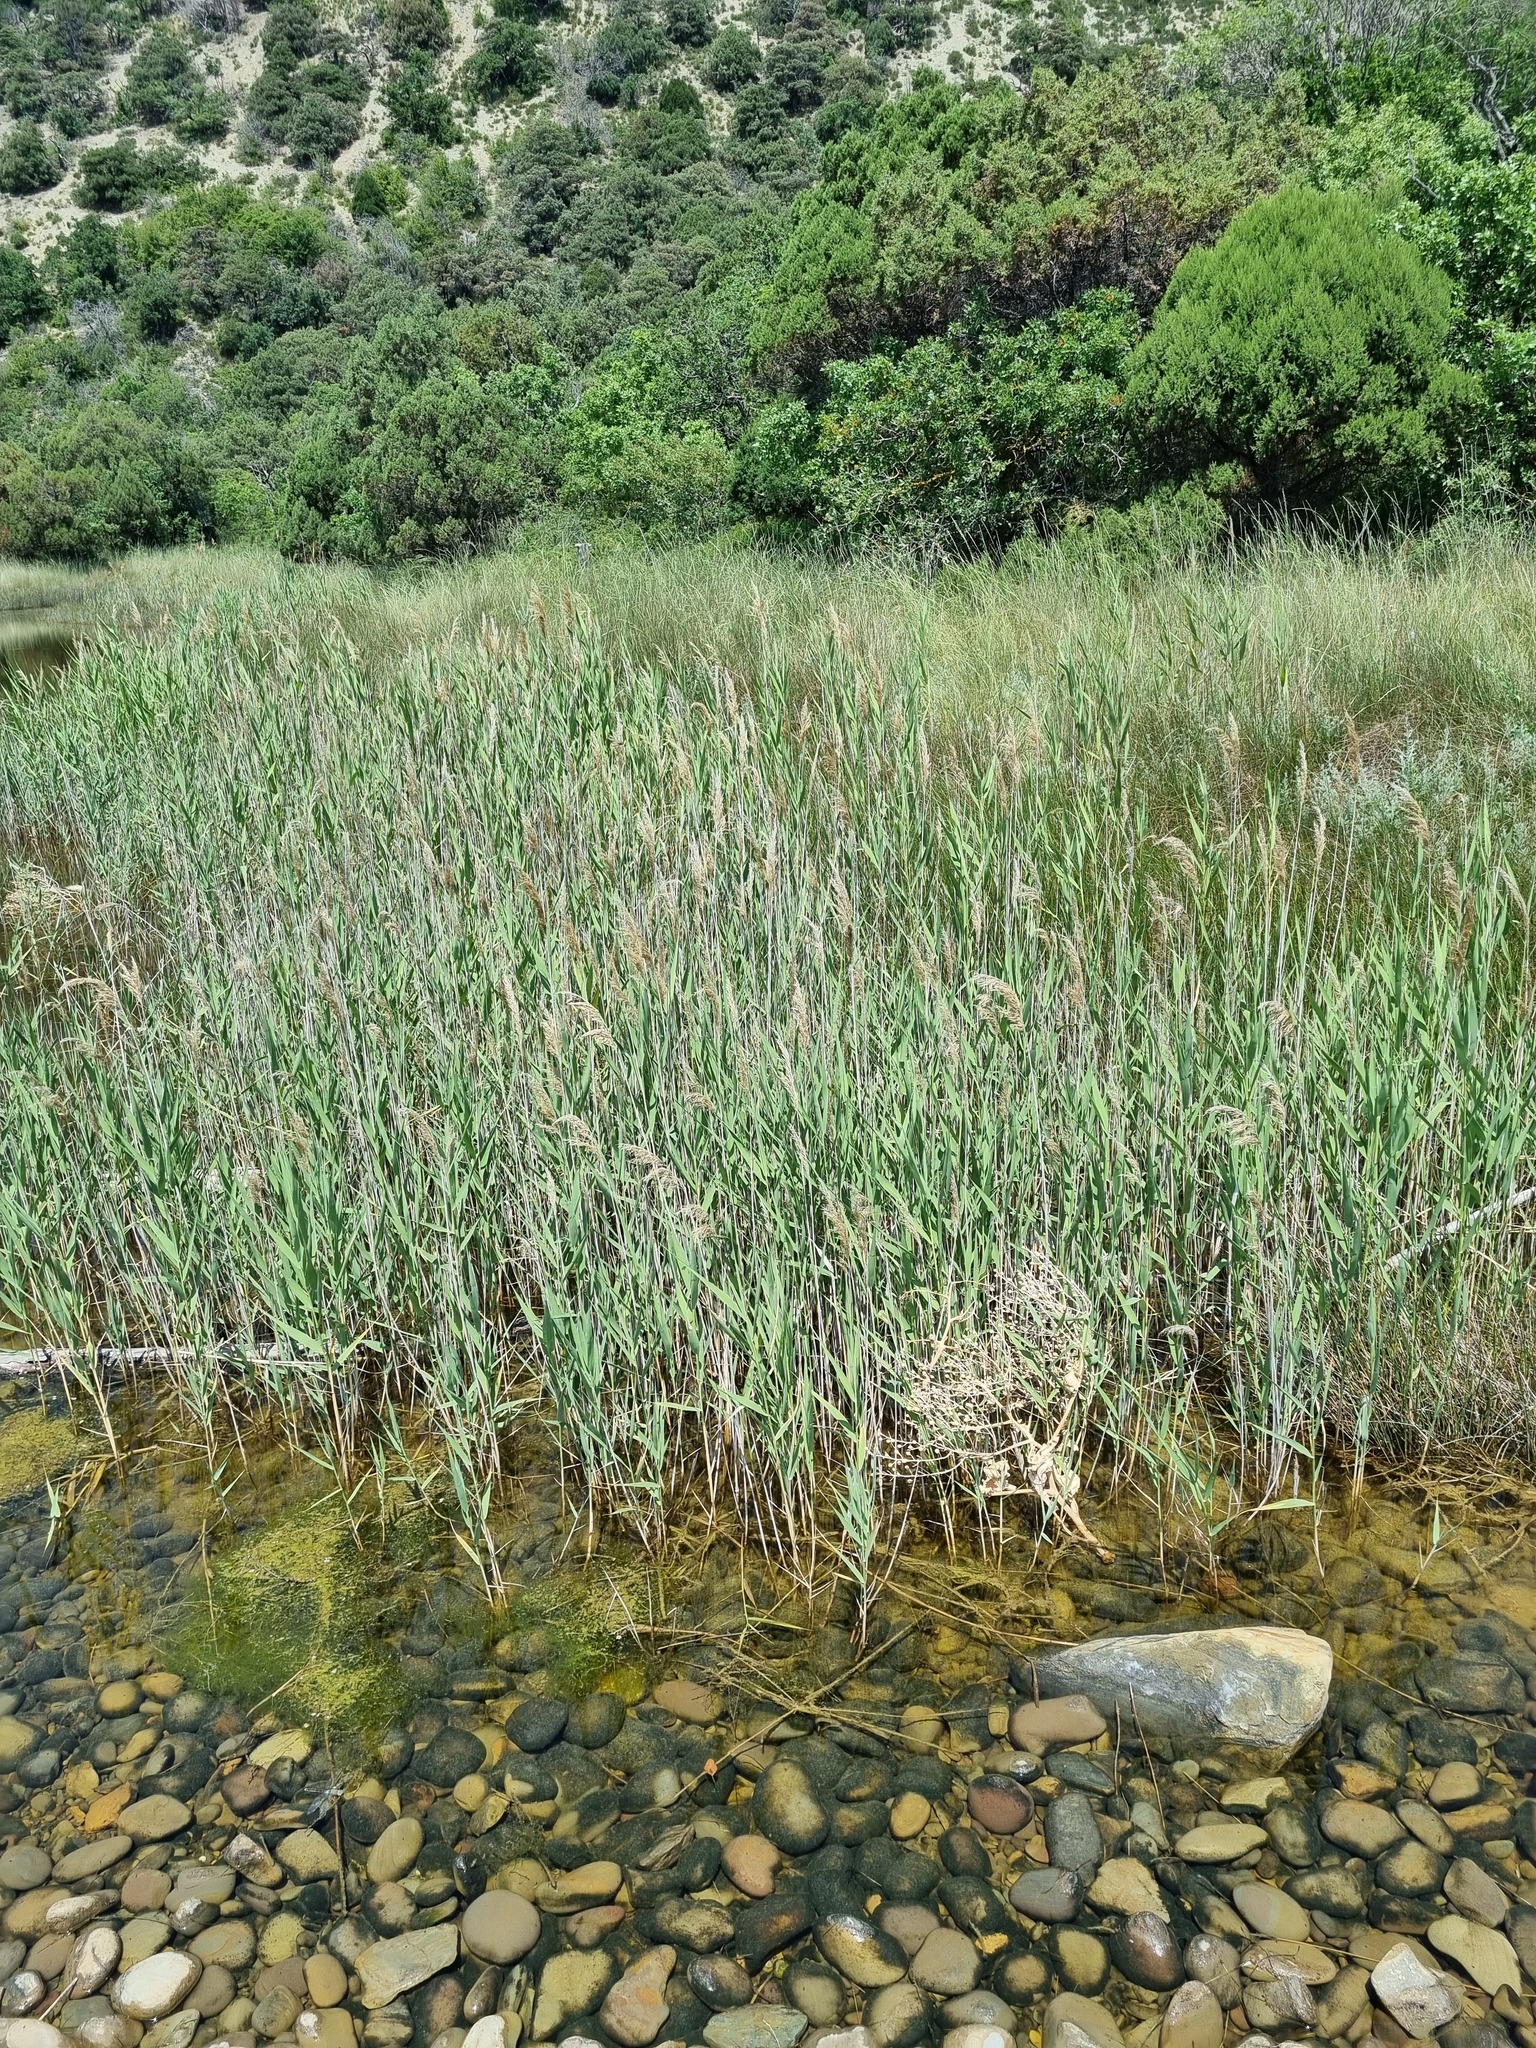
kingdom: Plantae
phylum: Tracheophyta
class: Liliopsida
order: Poales
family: Poaceae
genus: Phragmites
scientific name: Phragmites australis
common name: Common reed
